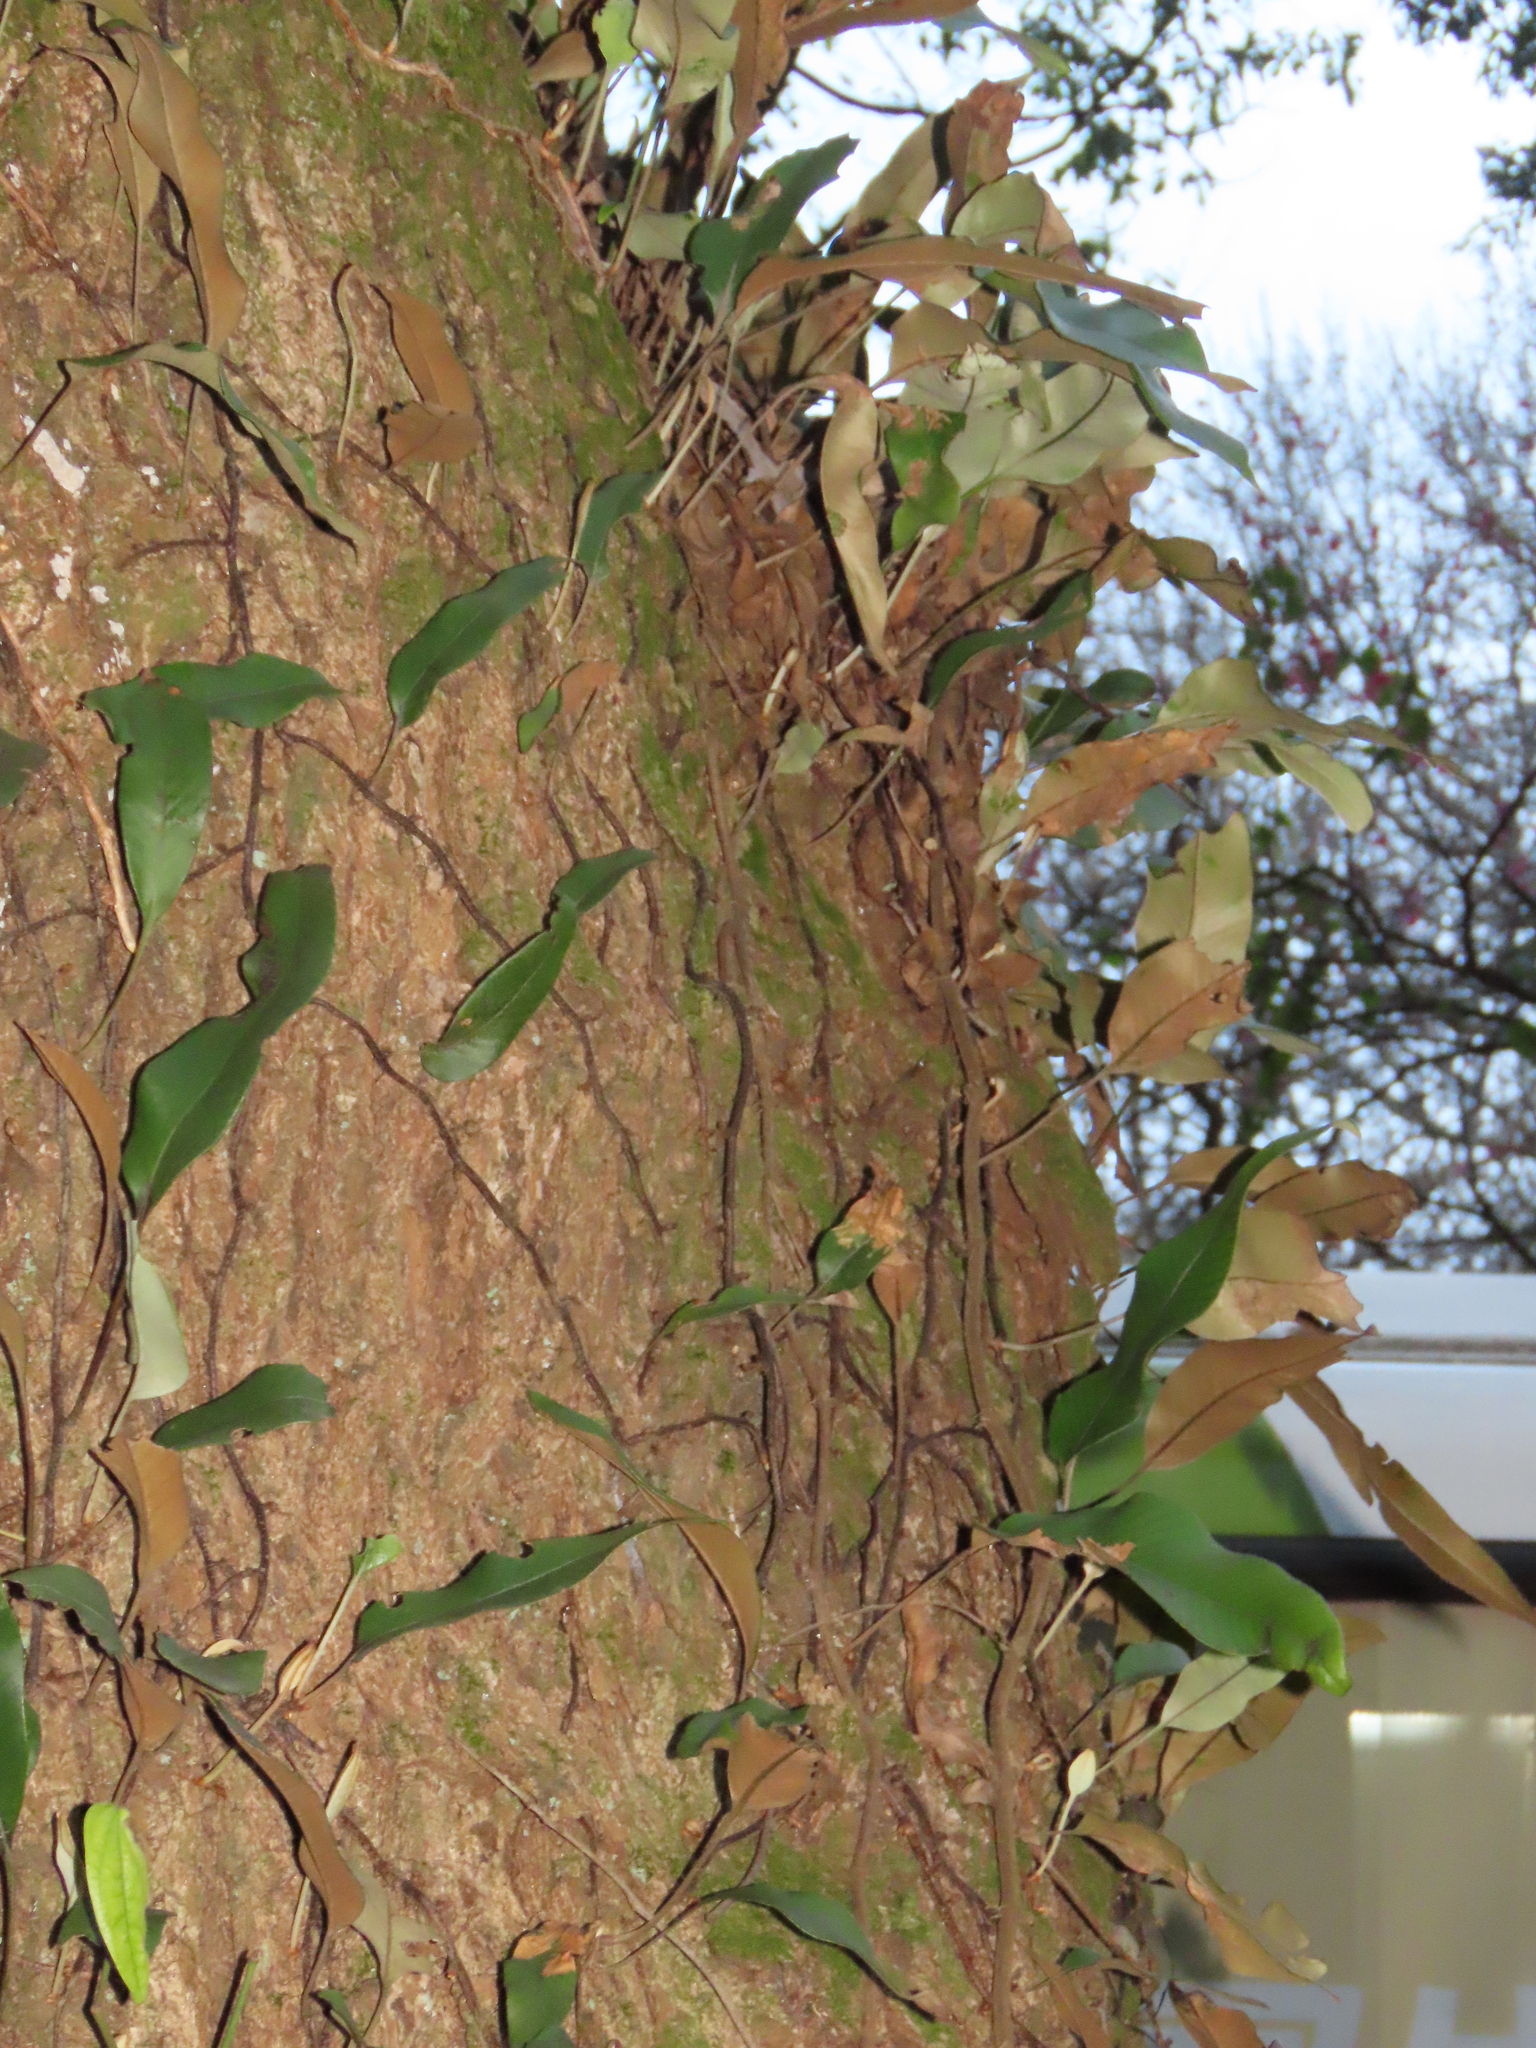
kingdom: Plantae
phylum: Tracheophyta
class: Polypodiopsida
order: Polypodiales
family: Polypodiaceae
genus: Pyrrosia
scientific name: Pyrrosia lingua
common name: Felt fern
